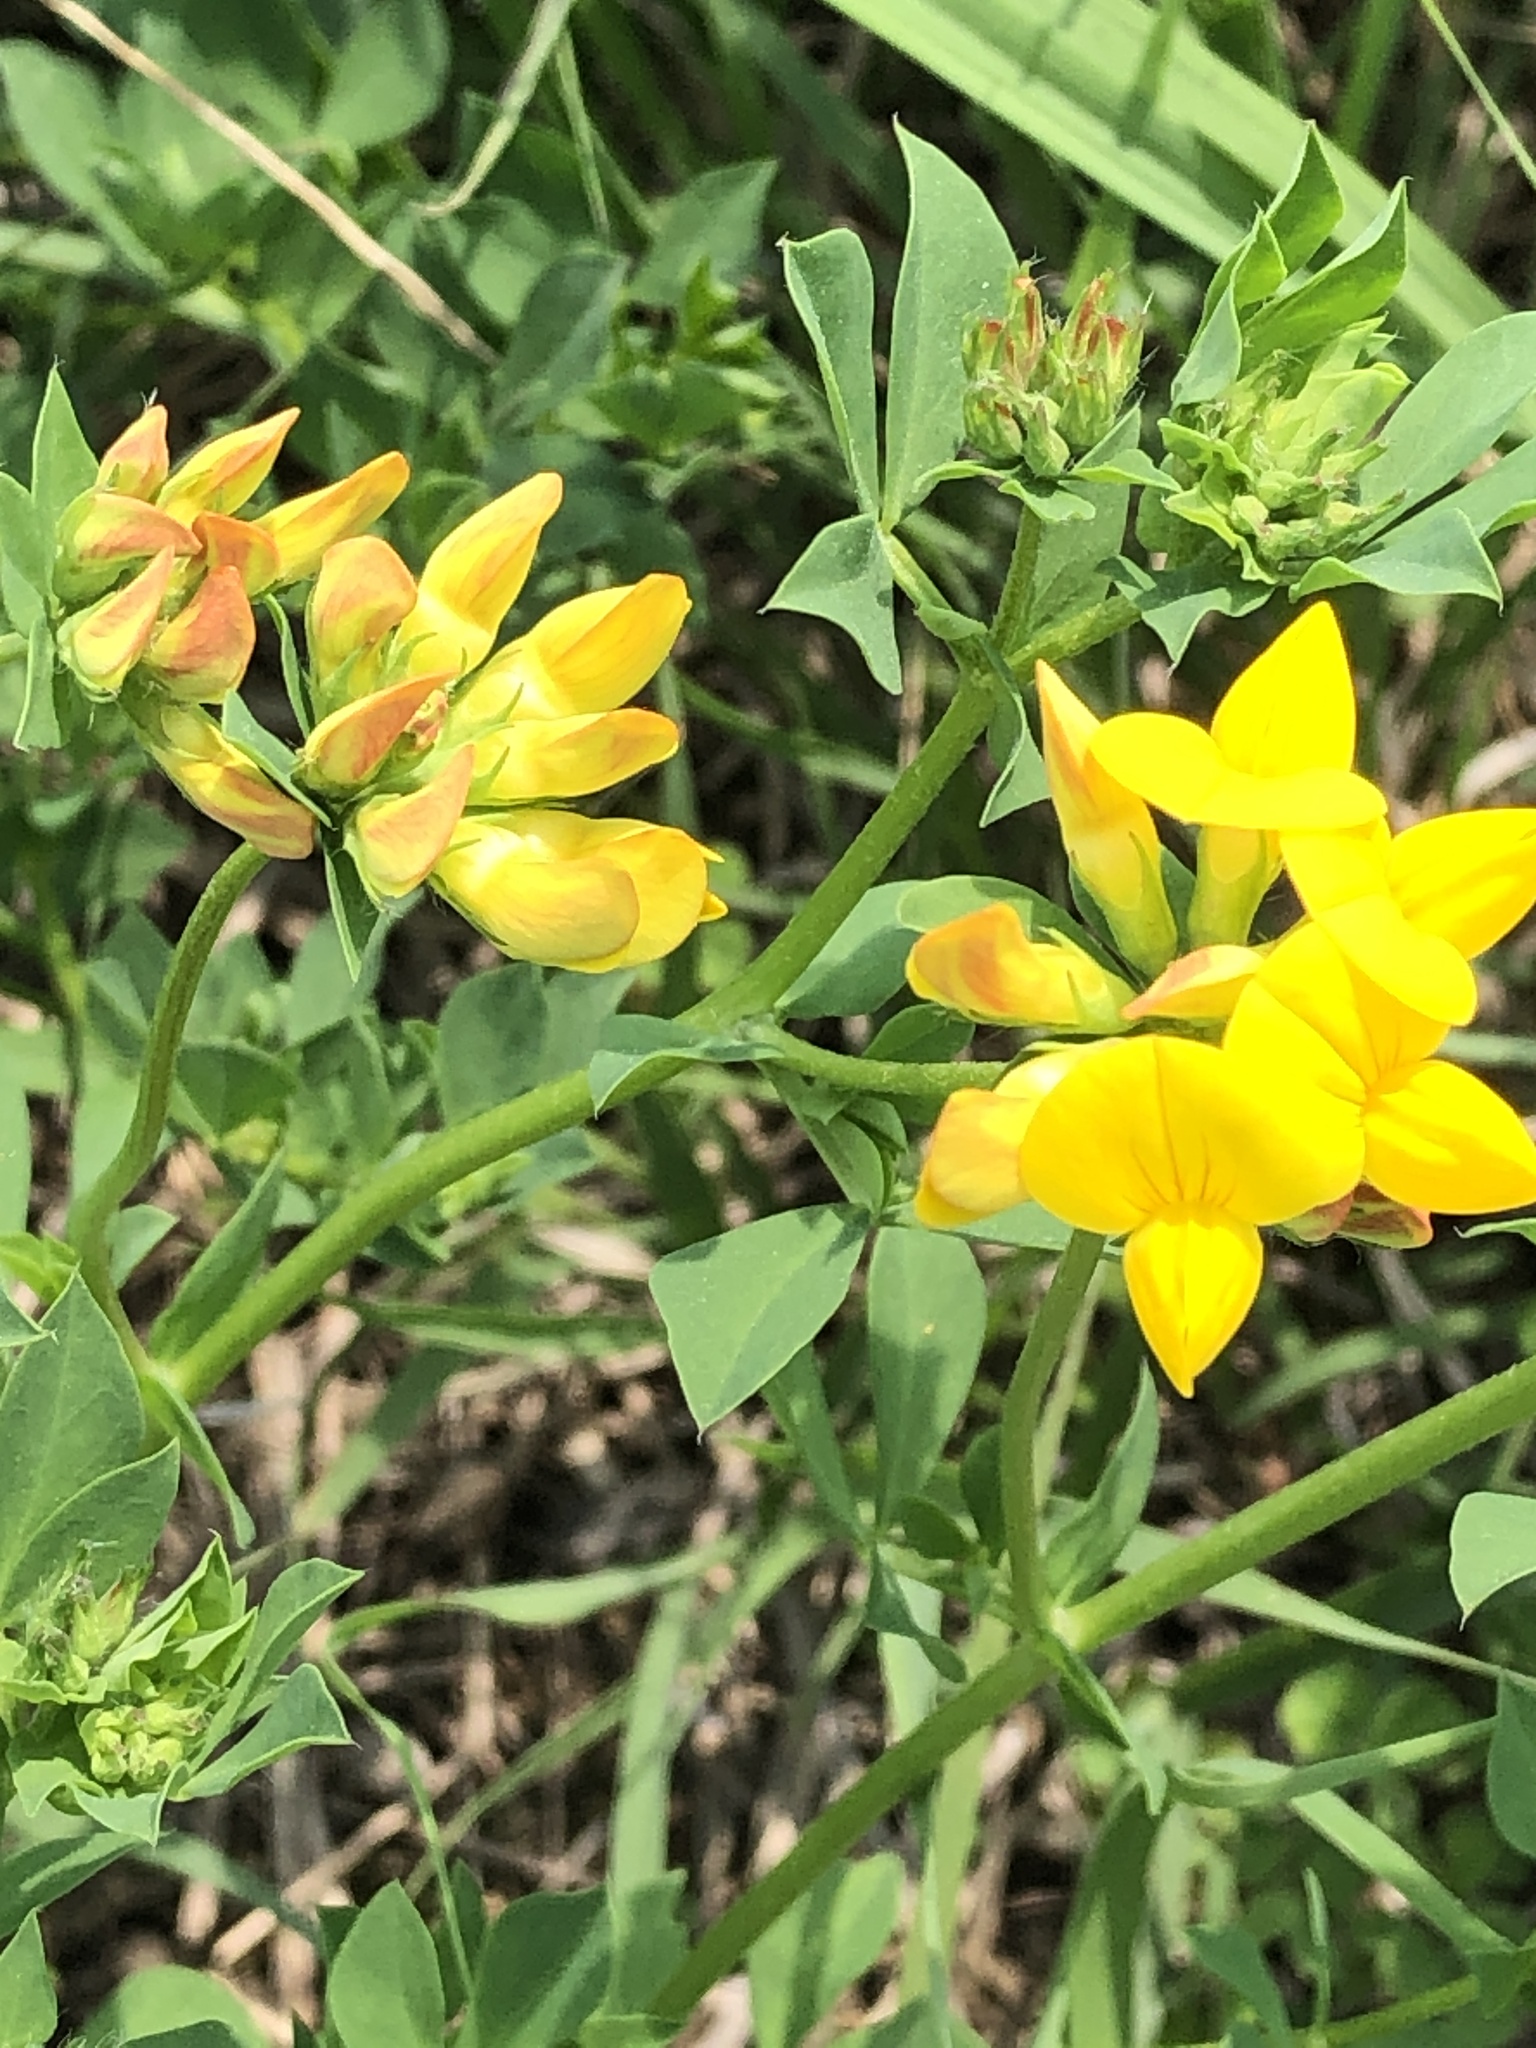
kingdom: Plantae
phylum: Tracheophyta
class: Magnoliopsida
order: Fabales
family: Fabaceae
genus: Lotus
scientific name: Lotus corniculatus
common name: Common bird's-foot-trefoil
